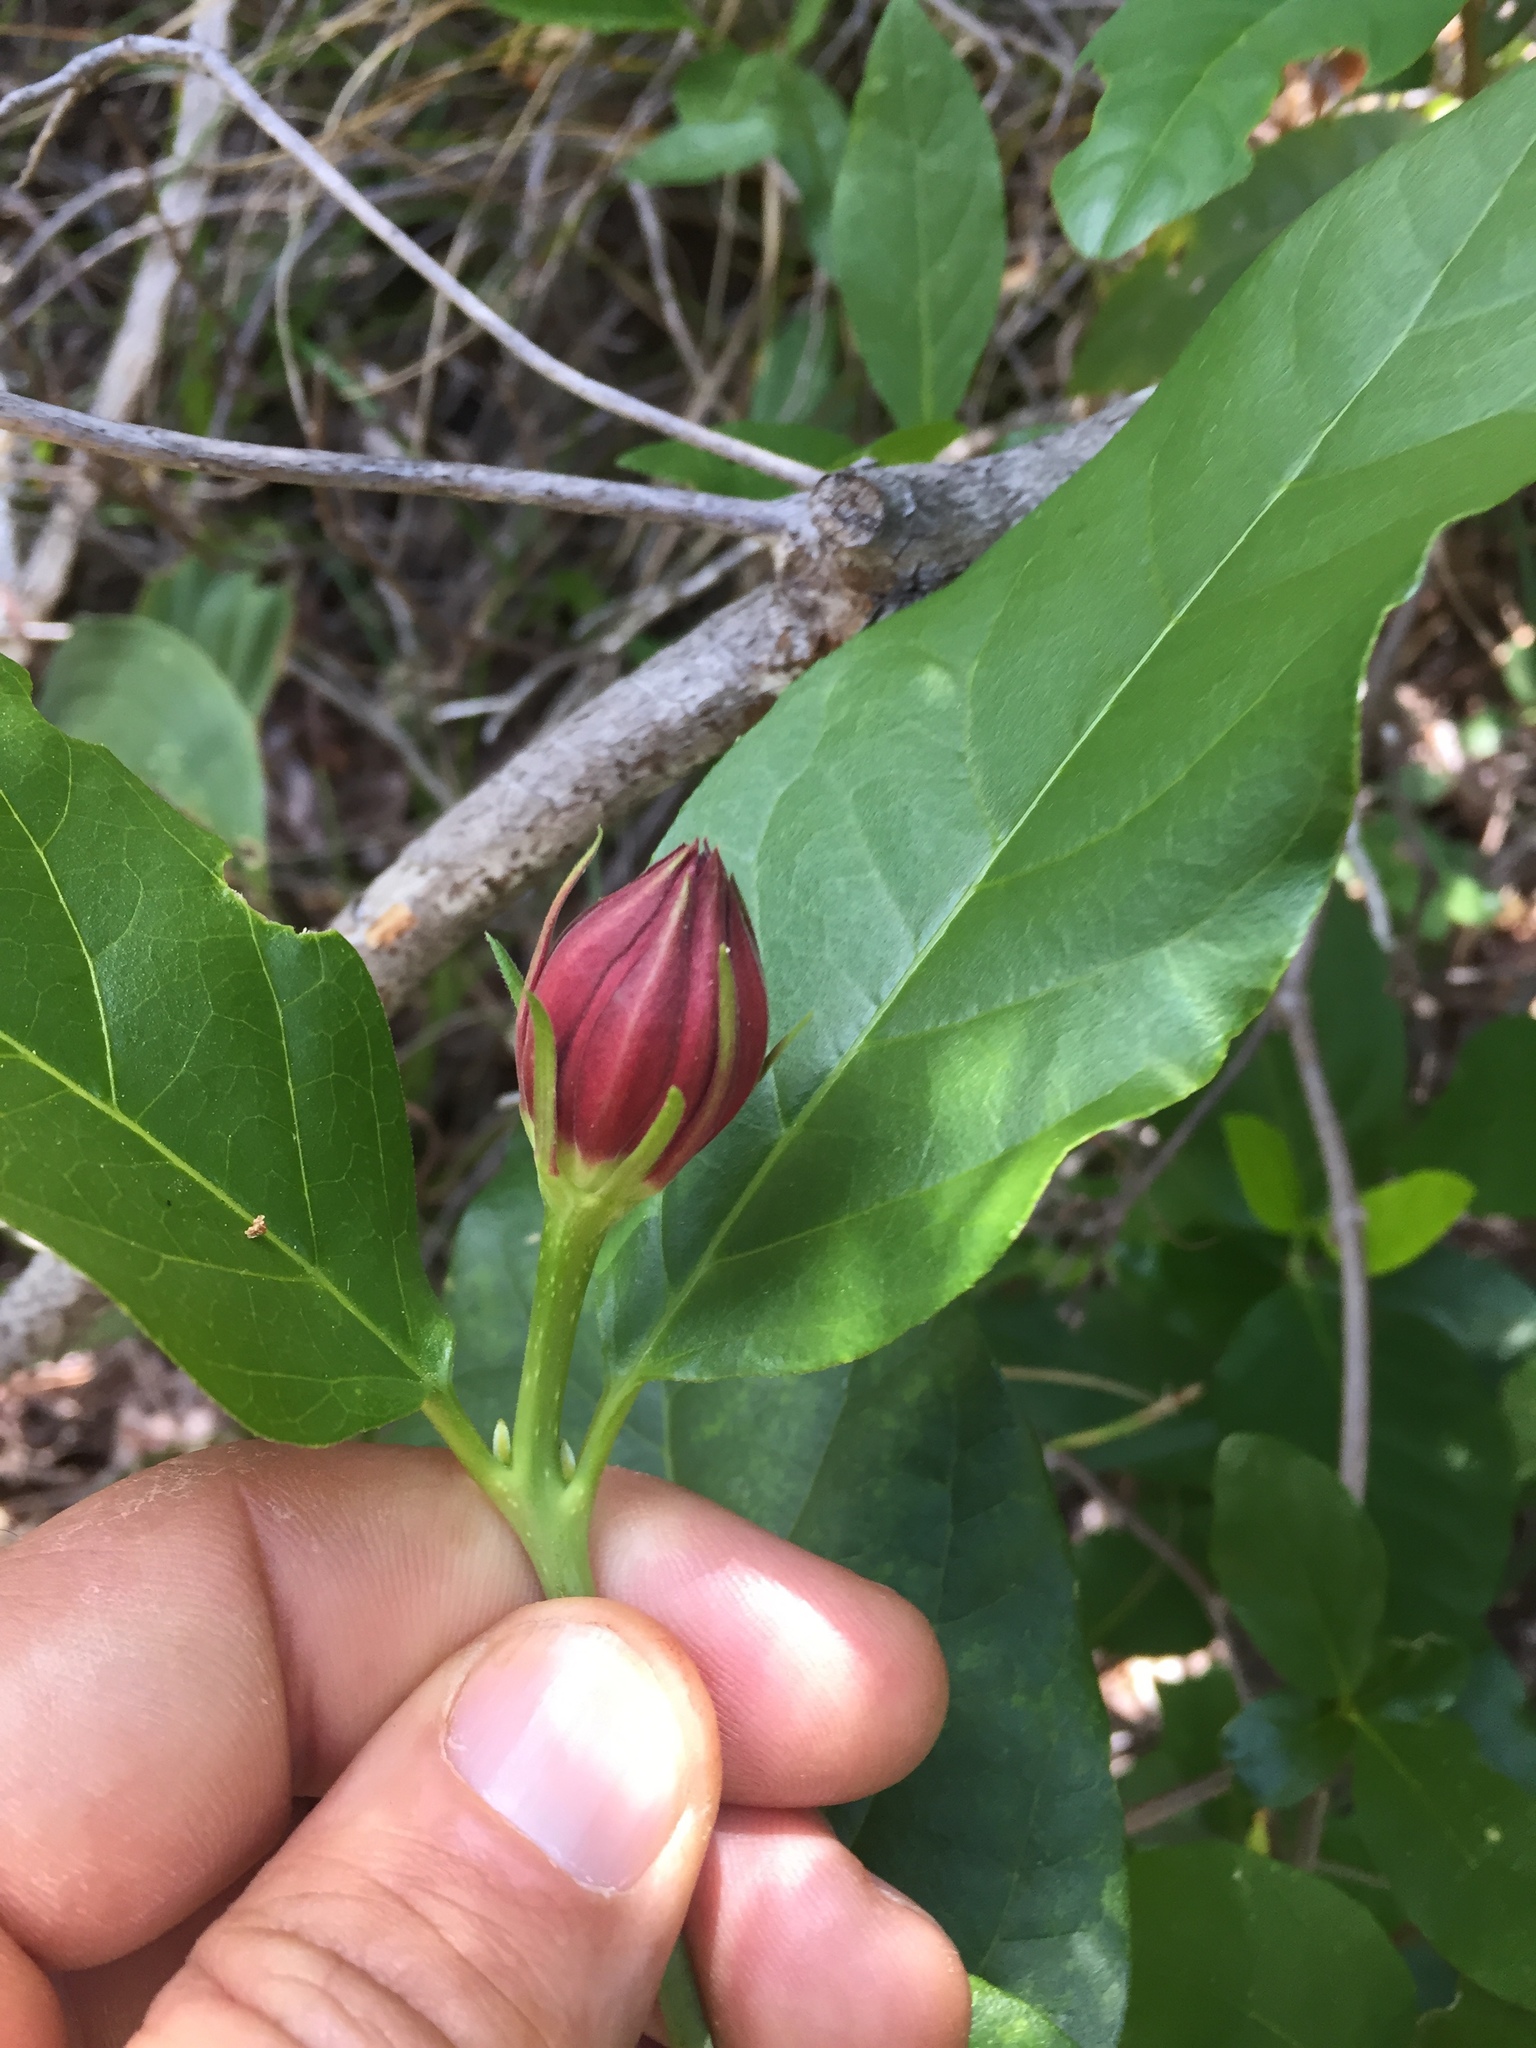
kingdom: Plantae
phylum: Tracheophyta
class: Magnoliopsida
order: Laurales
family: Calycanthaceae
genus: Calycanthus
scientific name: Calycanthus occidentalis
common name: California spicebush
